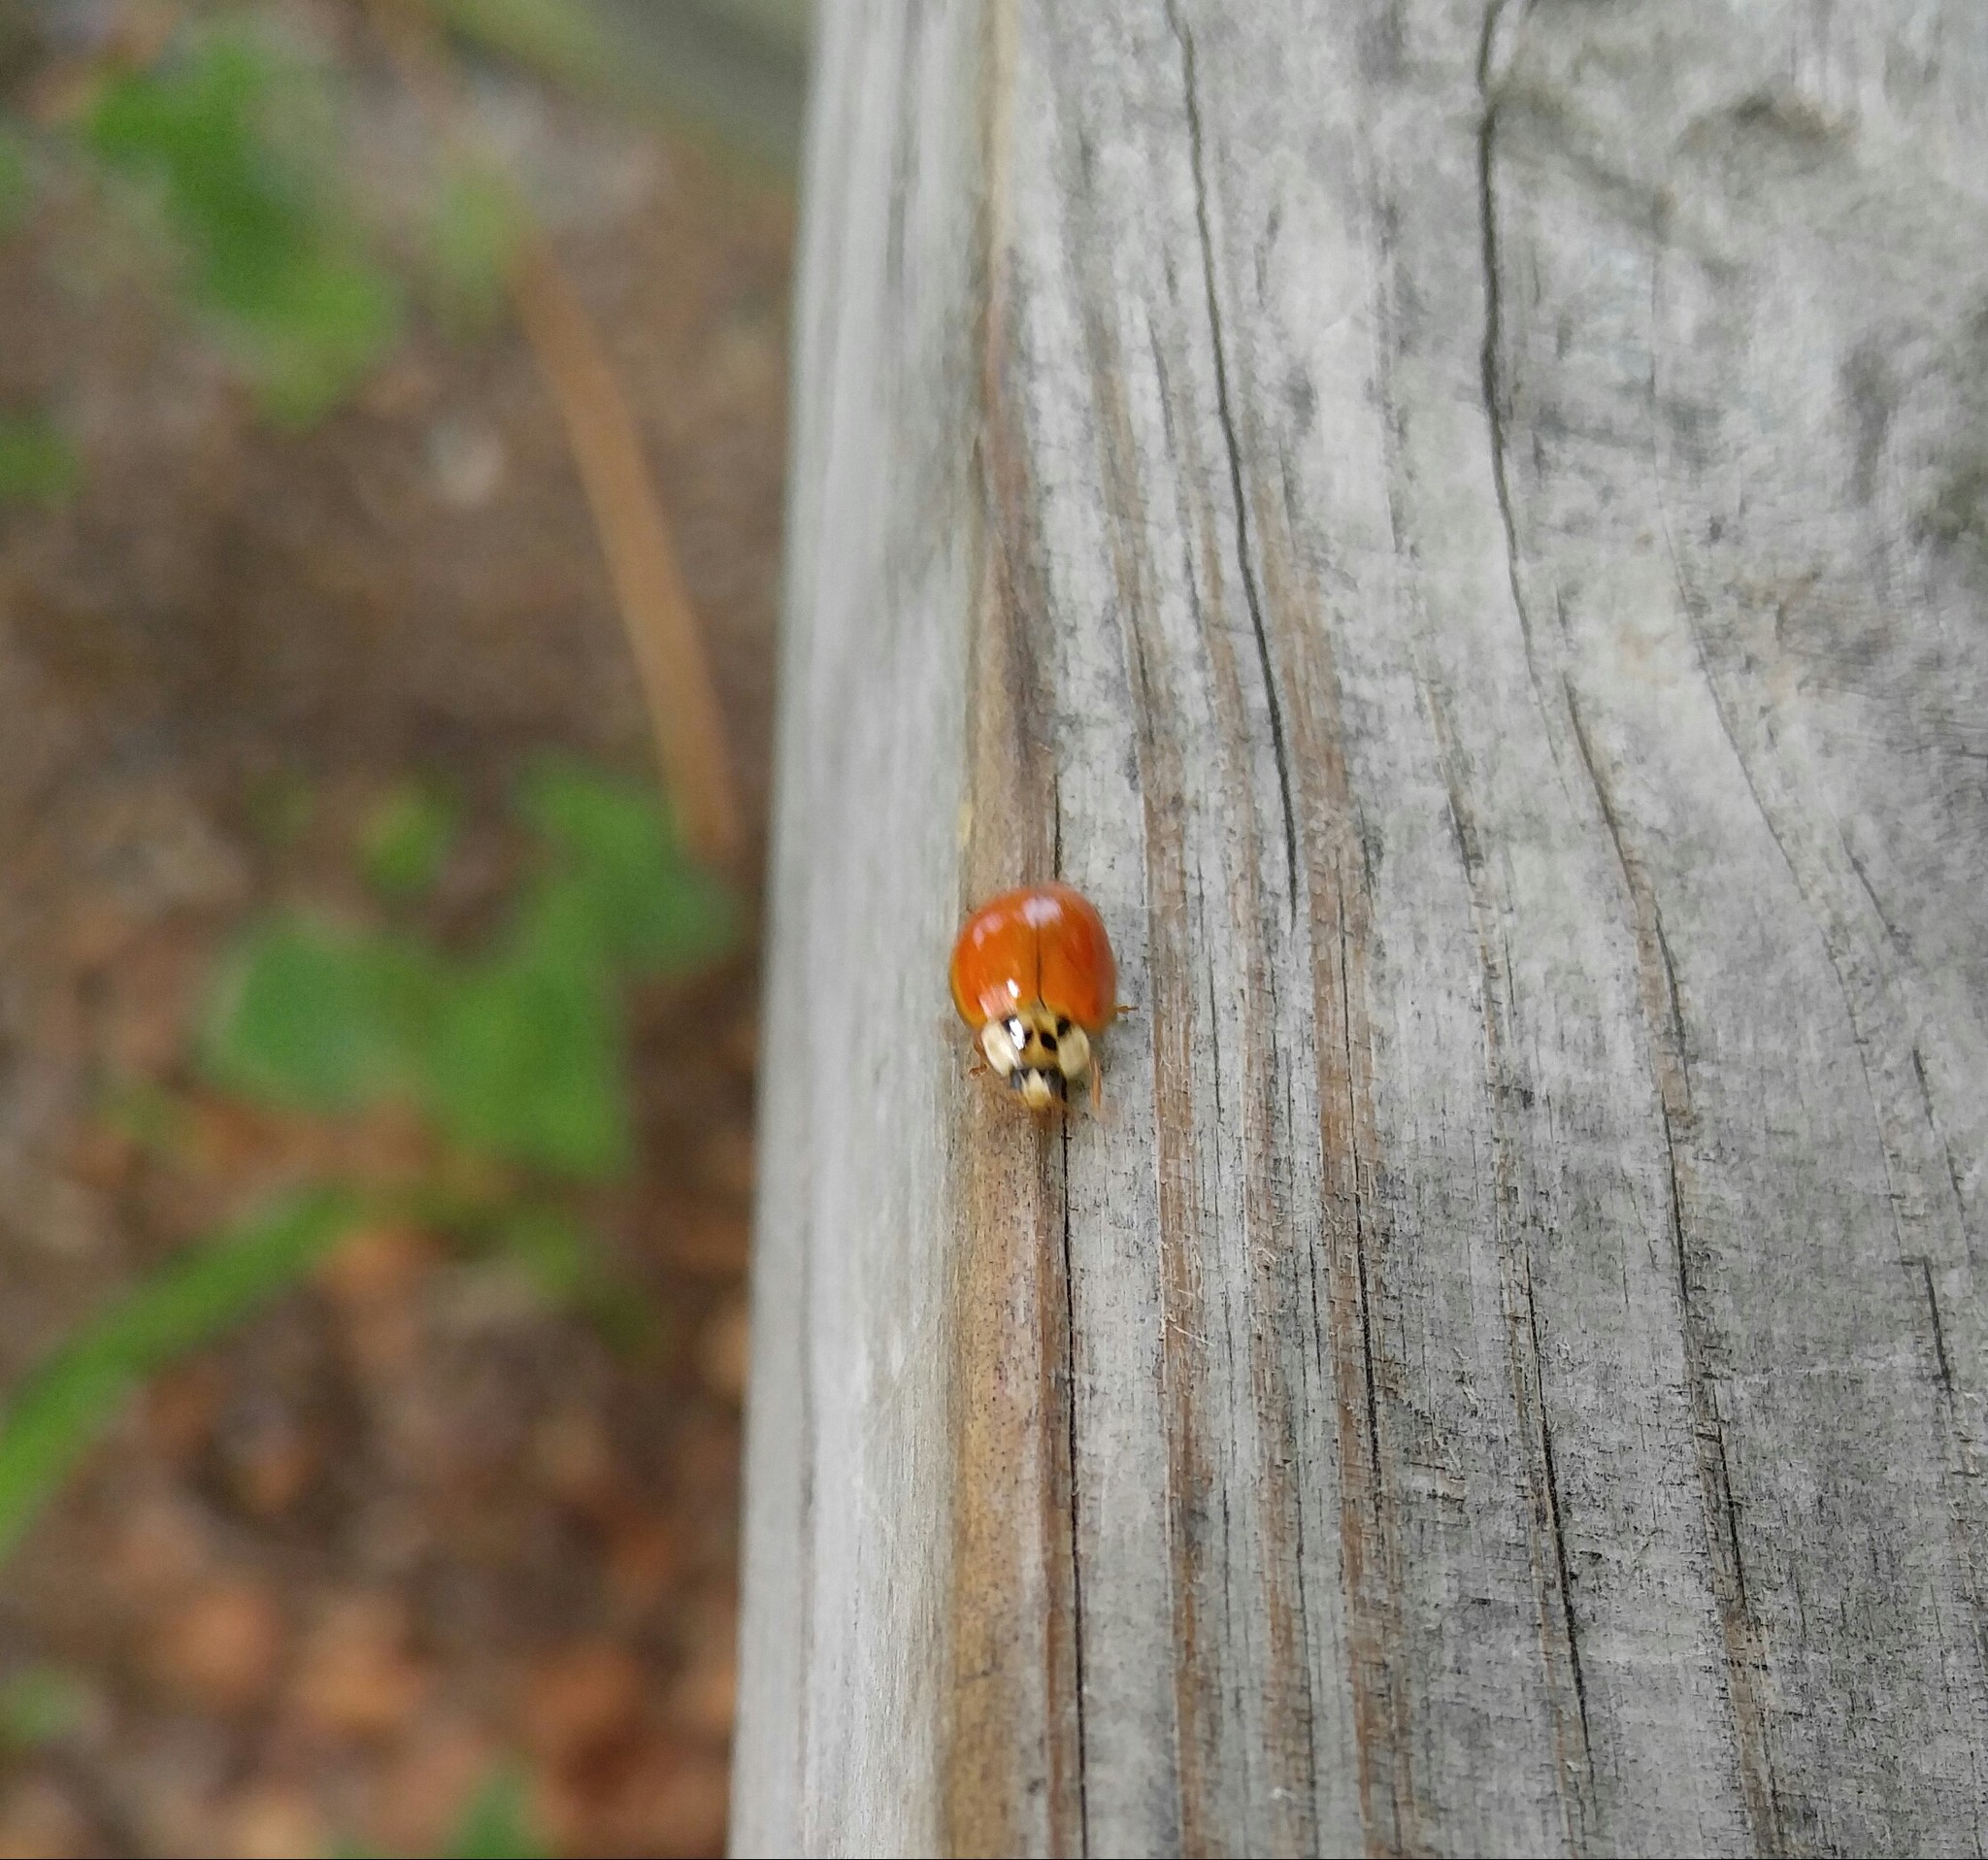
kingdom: Animalia
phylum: Arthropoda
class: Insecta
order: Coleoptera
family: Coccinellidae
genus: Harmonia
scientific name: Harmonia axyridis
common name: Harlequin ladybird
